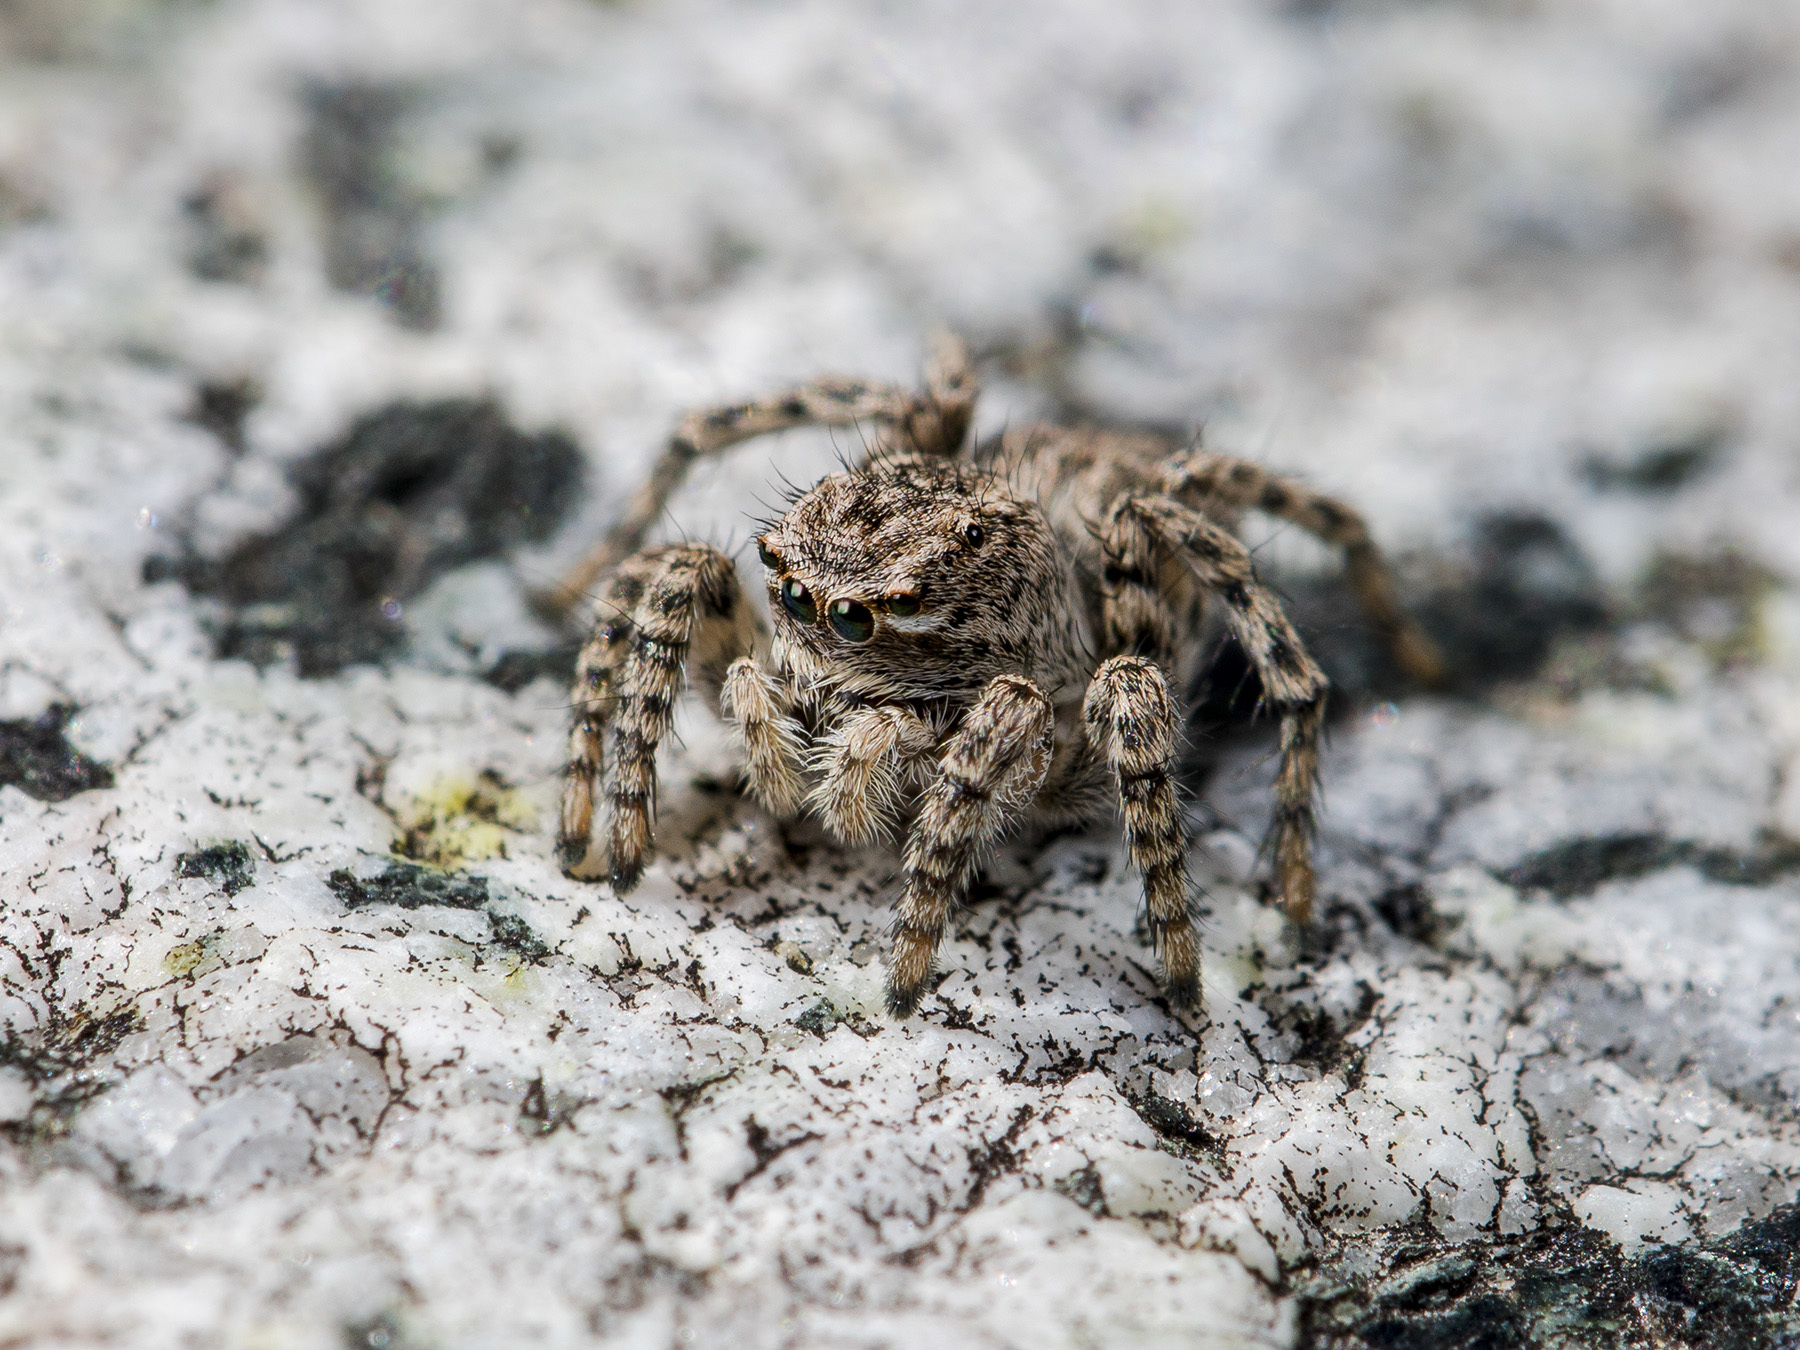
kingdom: Animalia
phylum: Arthropoda
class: Arachnida
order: Araneae
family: Salticidae
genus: Aelurillus
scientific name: Aelurillus v-insignitus
